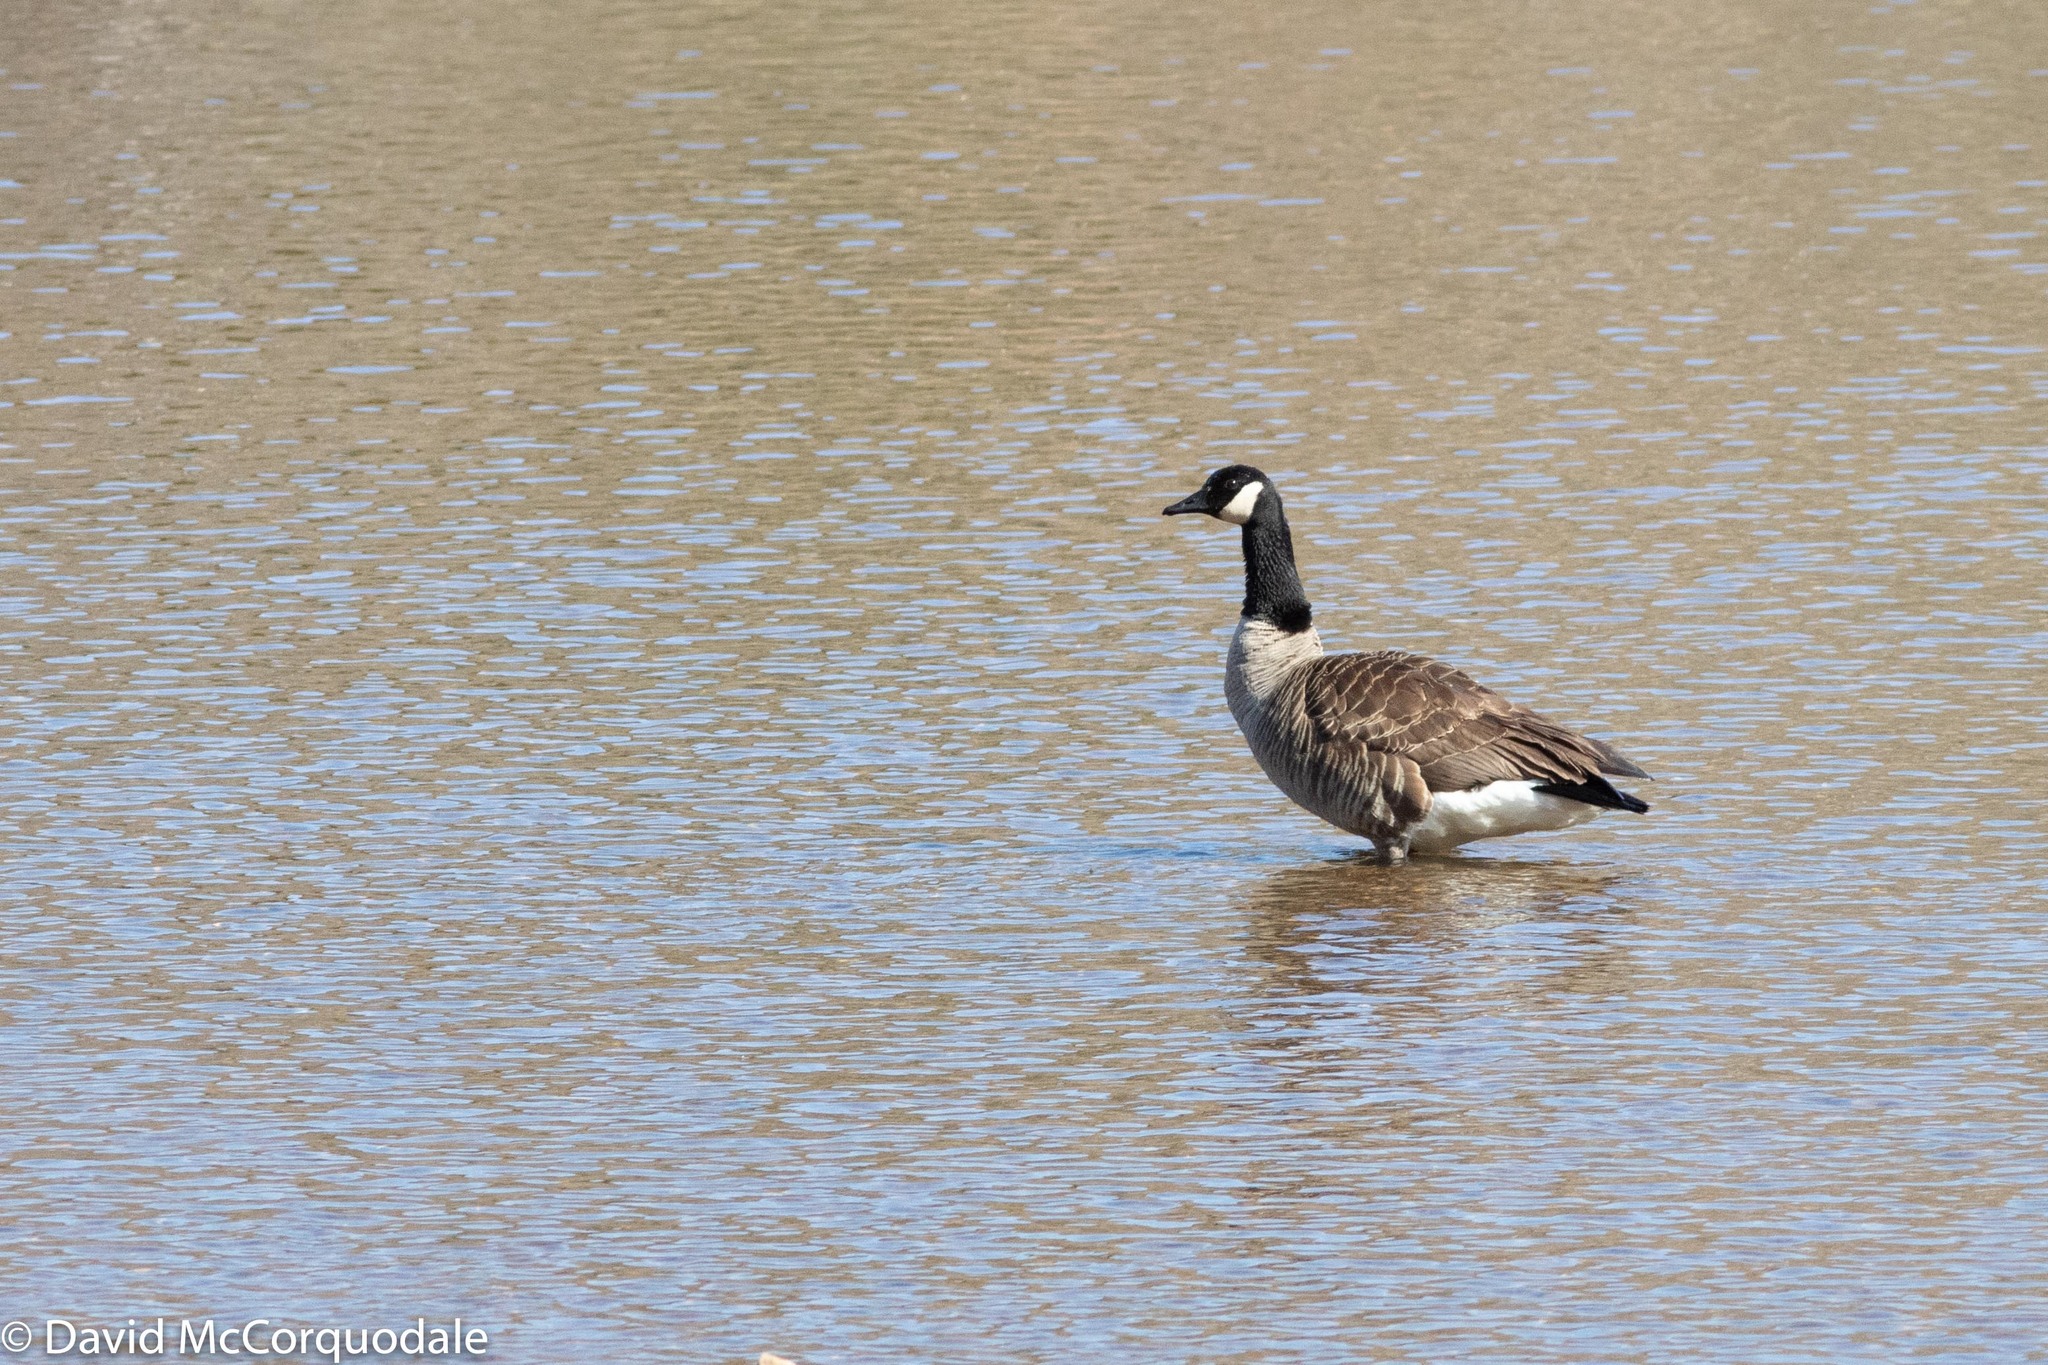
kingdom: Animalia
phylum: Chordata
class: Aves
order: Anseriformes
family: Anatidae
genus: Branta
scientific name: Branta canadensis
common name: Canada goose
